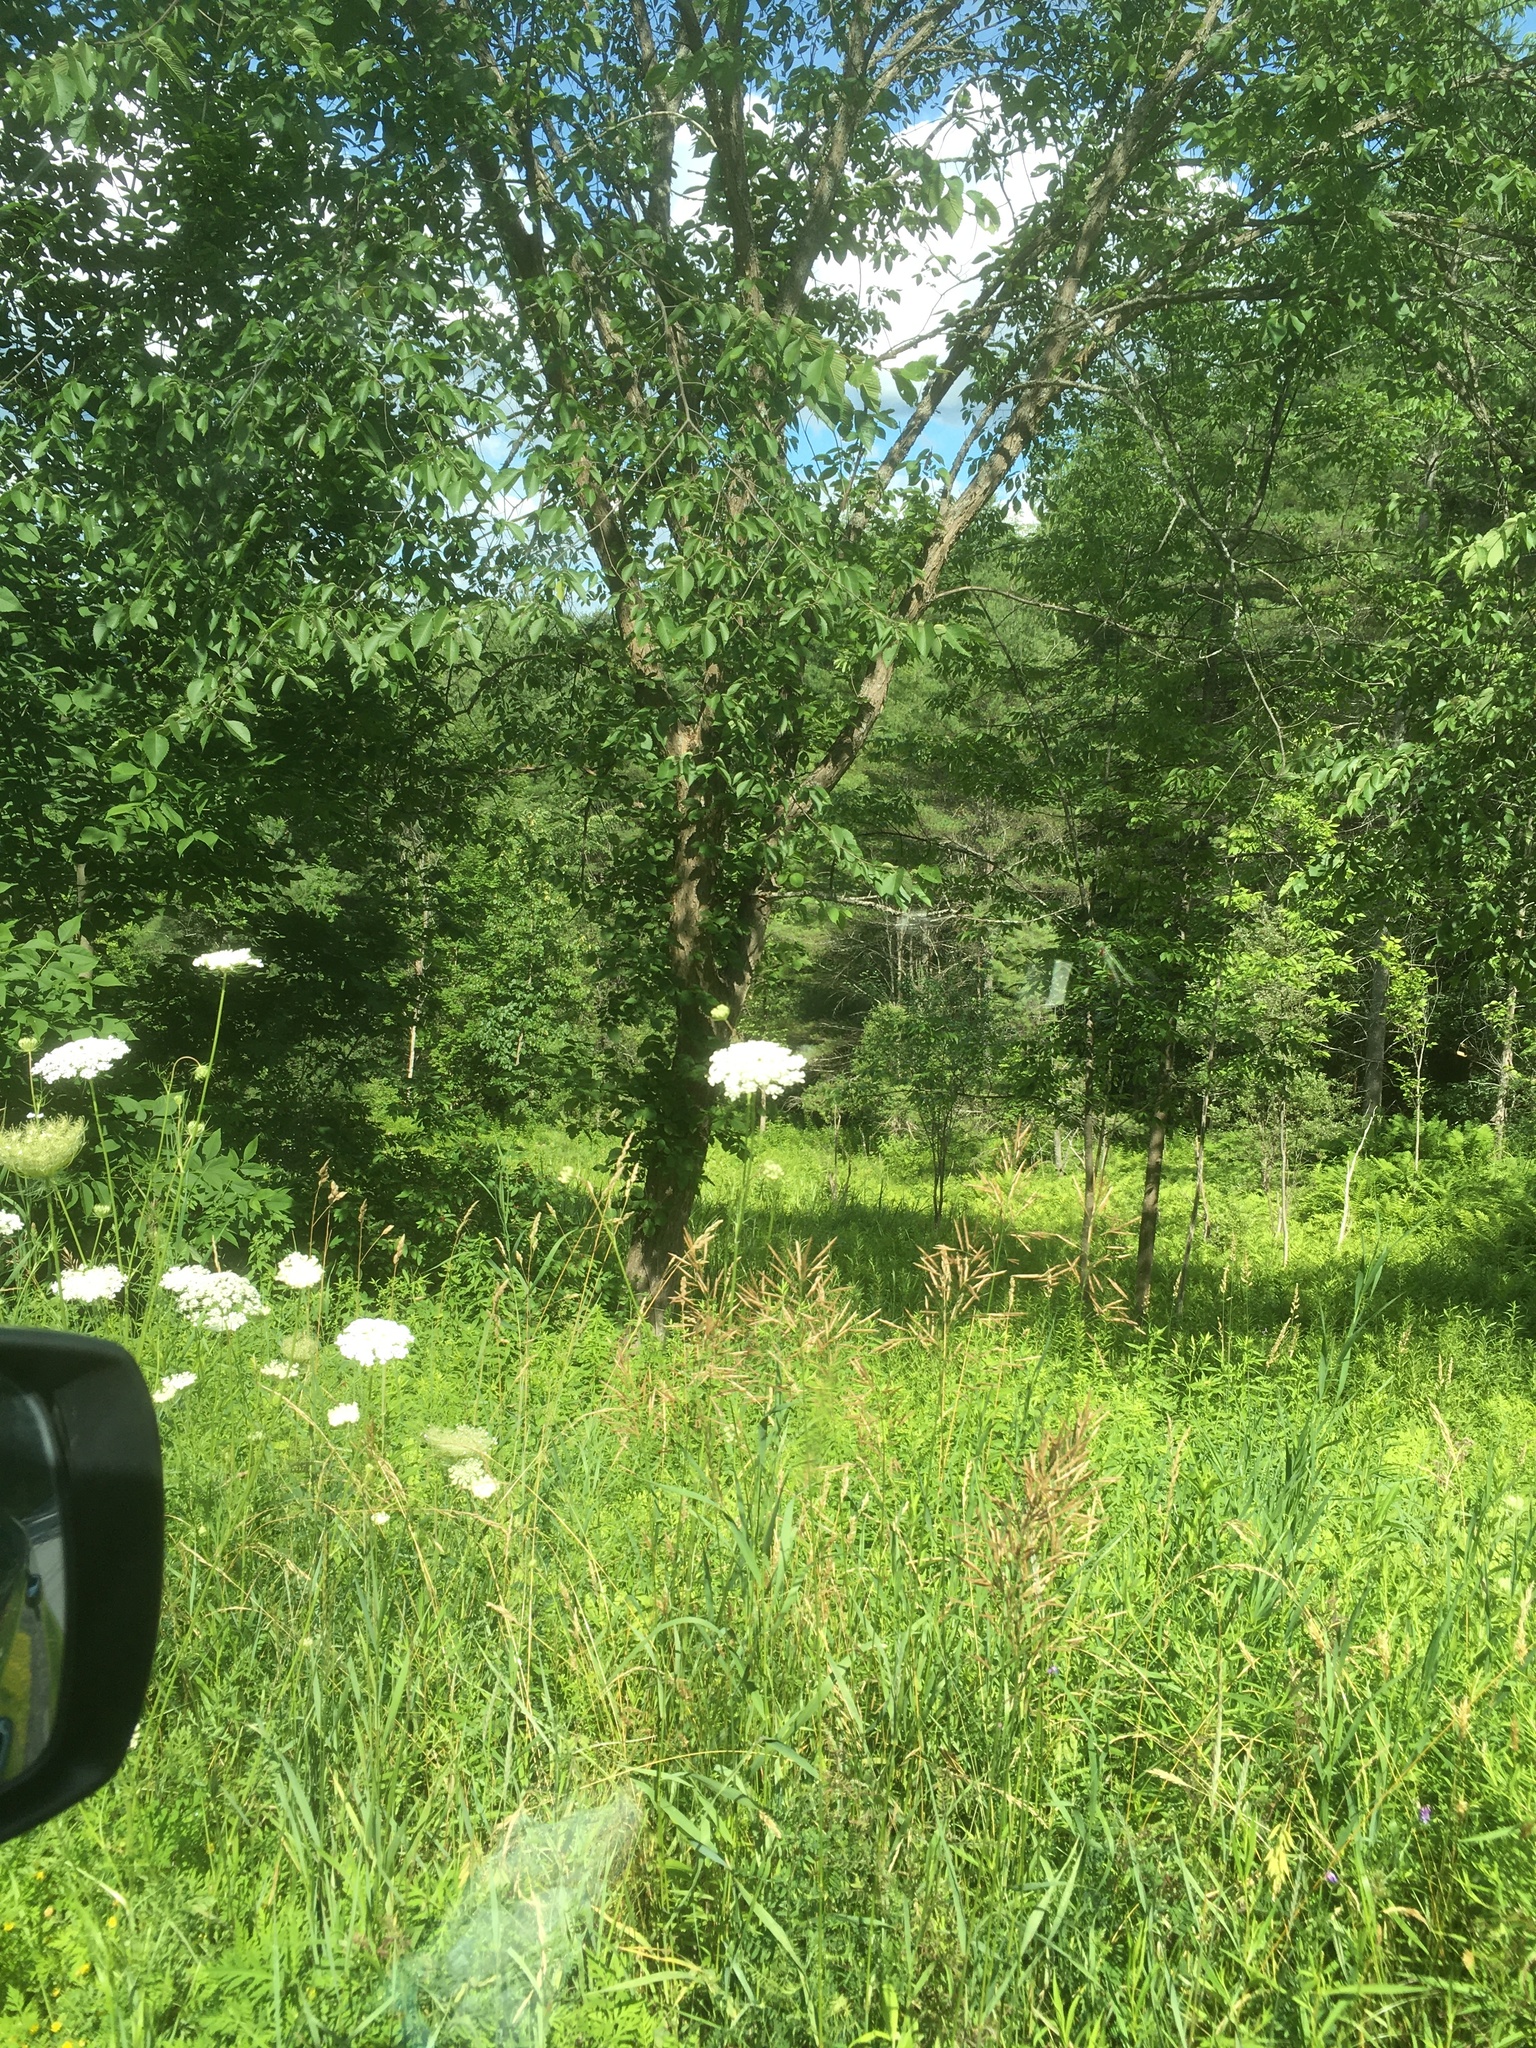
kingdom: Plantae
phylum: Tracheophyta
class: Magnoliopsida
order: Rosales
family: Ulmaceae
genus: Ulmus
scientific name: Ulmus americana
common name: American elm
